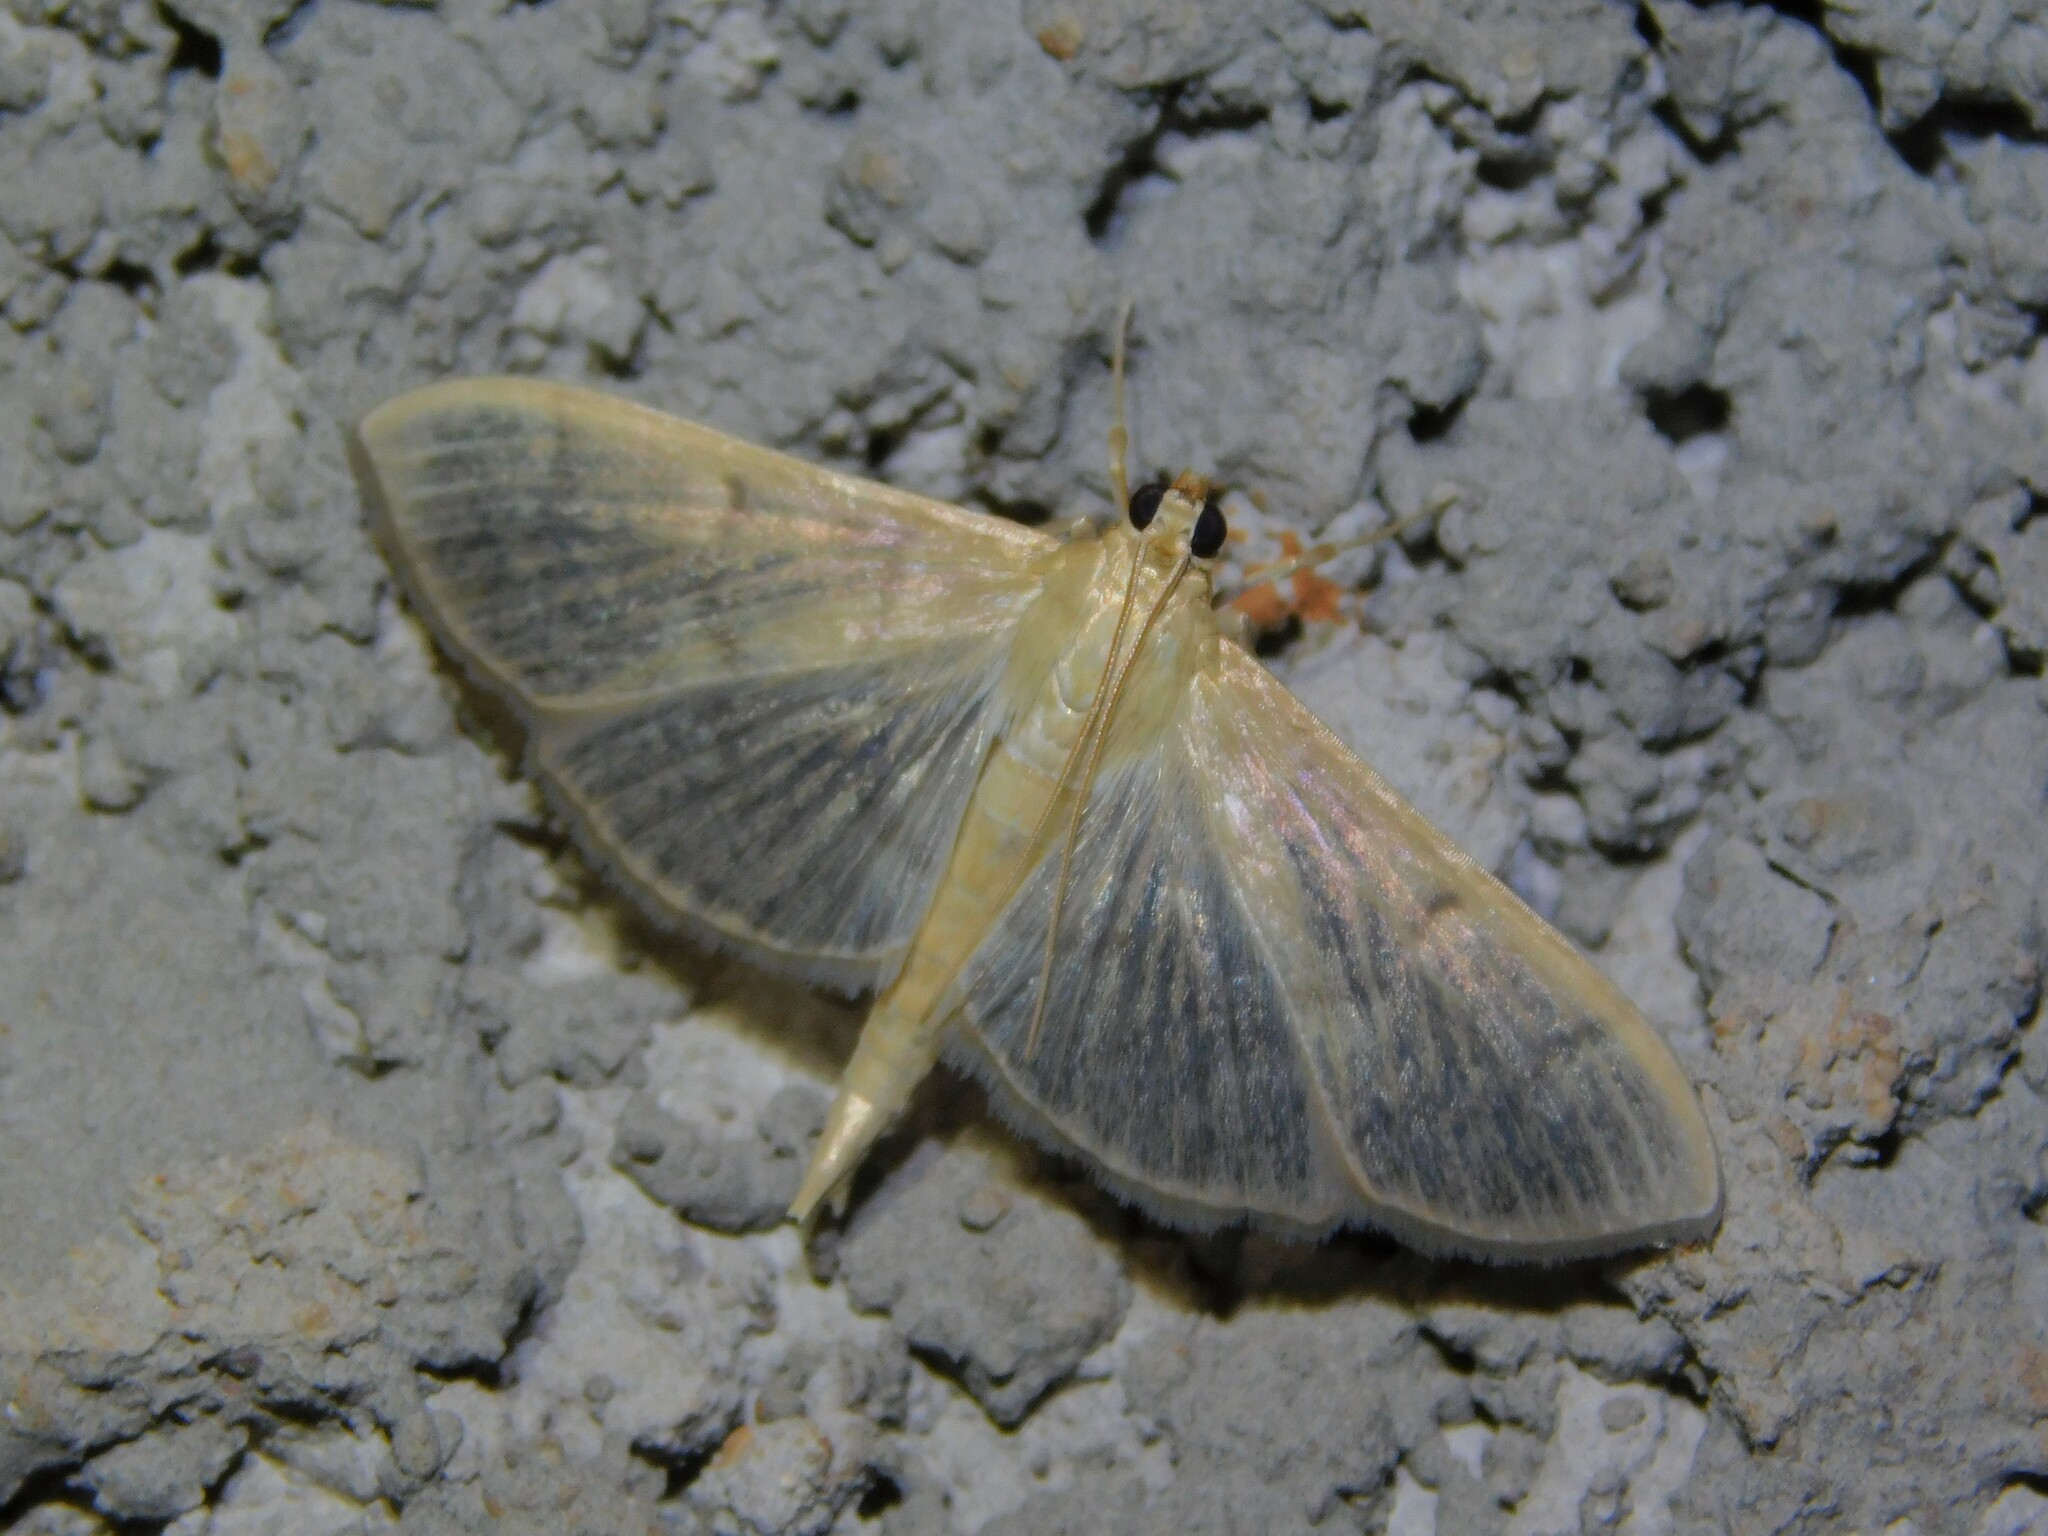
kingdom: Animalia
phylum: Arthropoda
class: Insecta
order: Lepidoptera
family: Crambidae
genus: Lamprophaia
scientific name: Lamprophaia ablactalis
